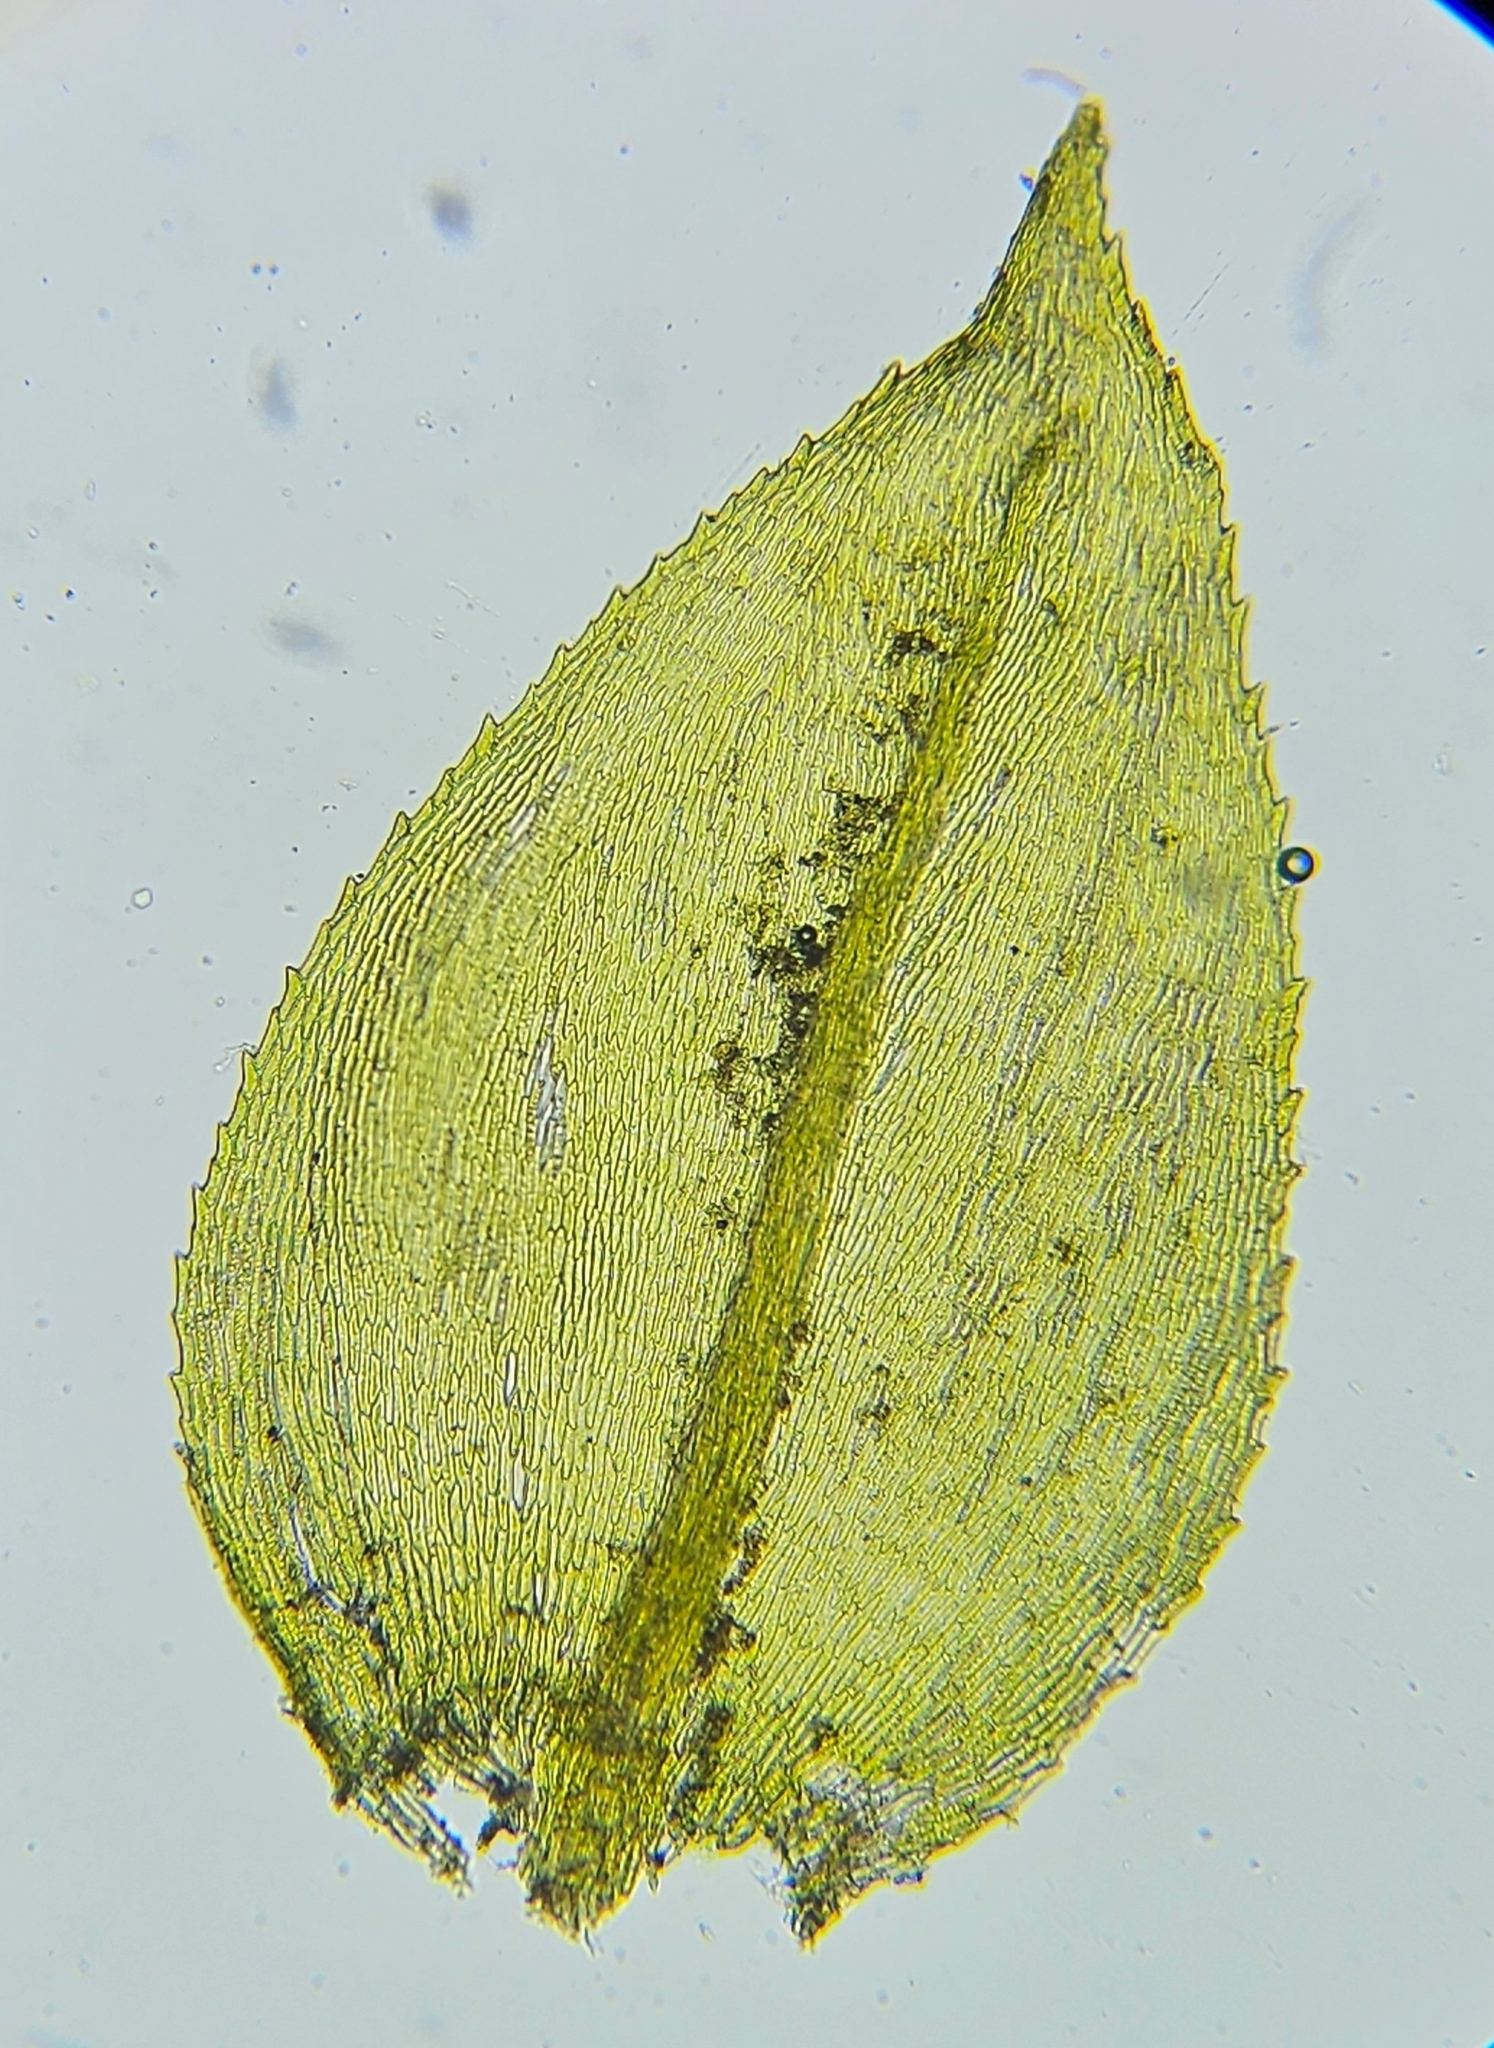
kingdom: Plantae
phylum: Bryophyta
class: Bryopsida
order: Hypnales
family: Brachytheciaceae
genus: Oxyrrhynchium
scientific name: Oxyrrhynchium hians
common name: Spreading beaked moss
